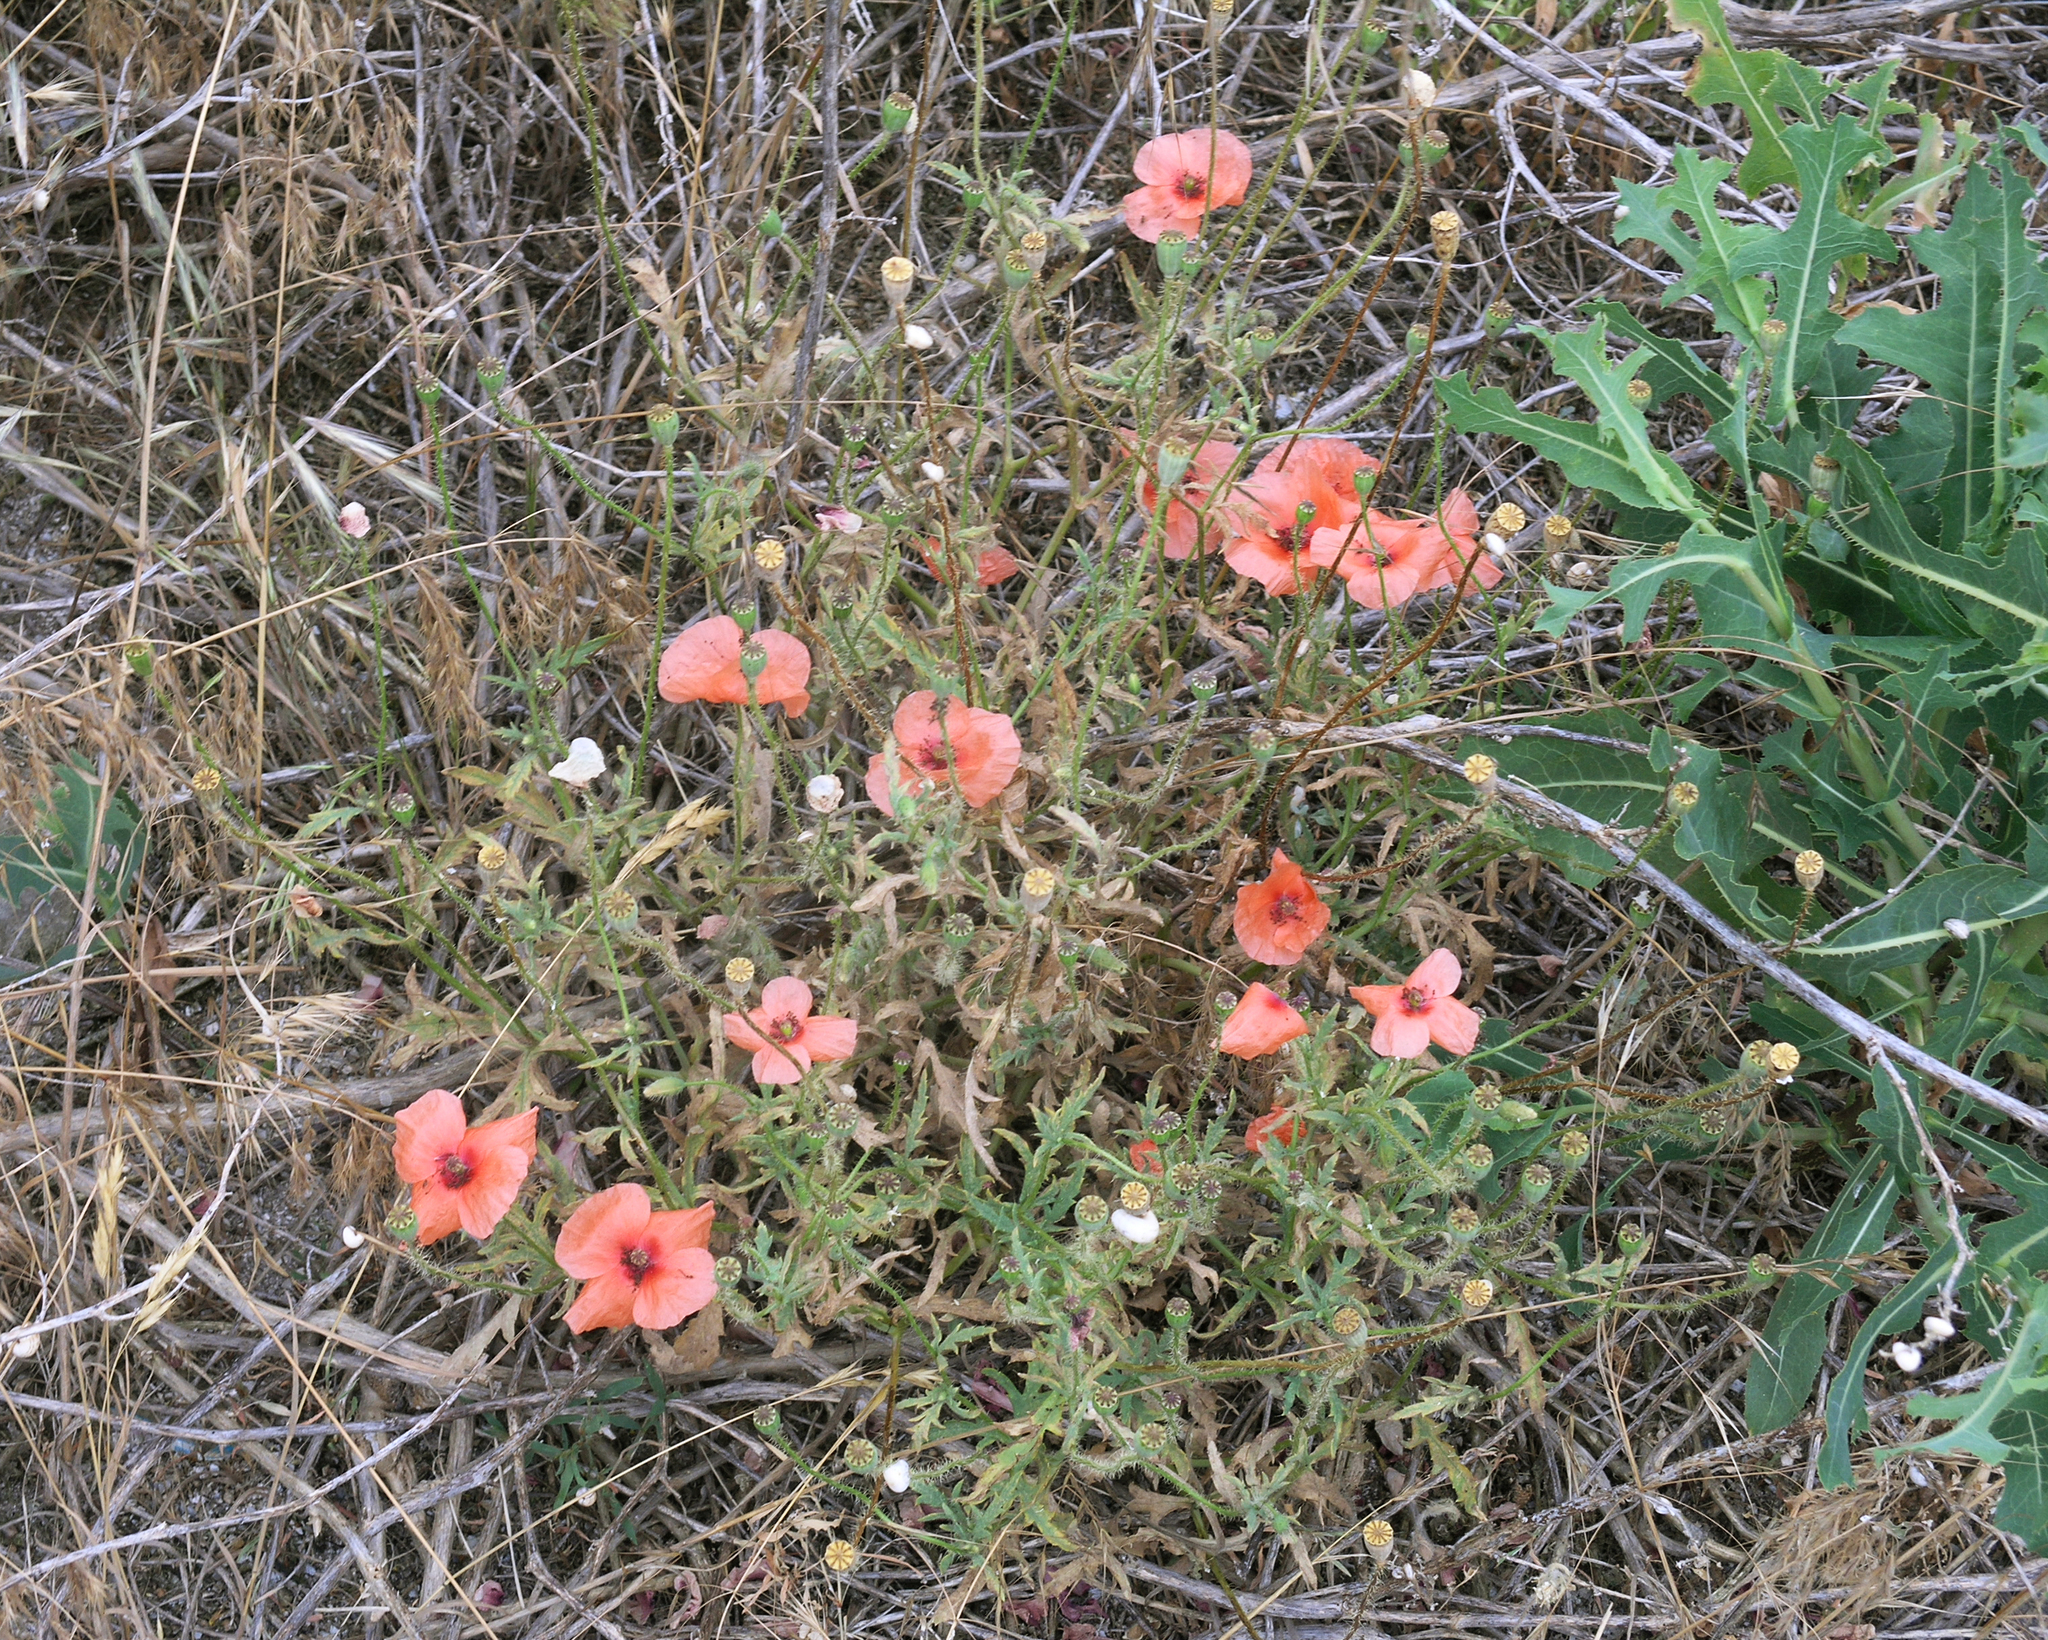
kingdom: Plantae
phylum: Tracheophyta
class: Magnoliopsida
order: Ranunculales
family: Papaveraceae
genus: Papaver
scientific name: Papaver rhoeas
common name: Corn poppy
